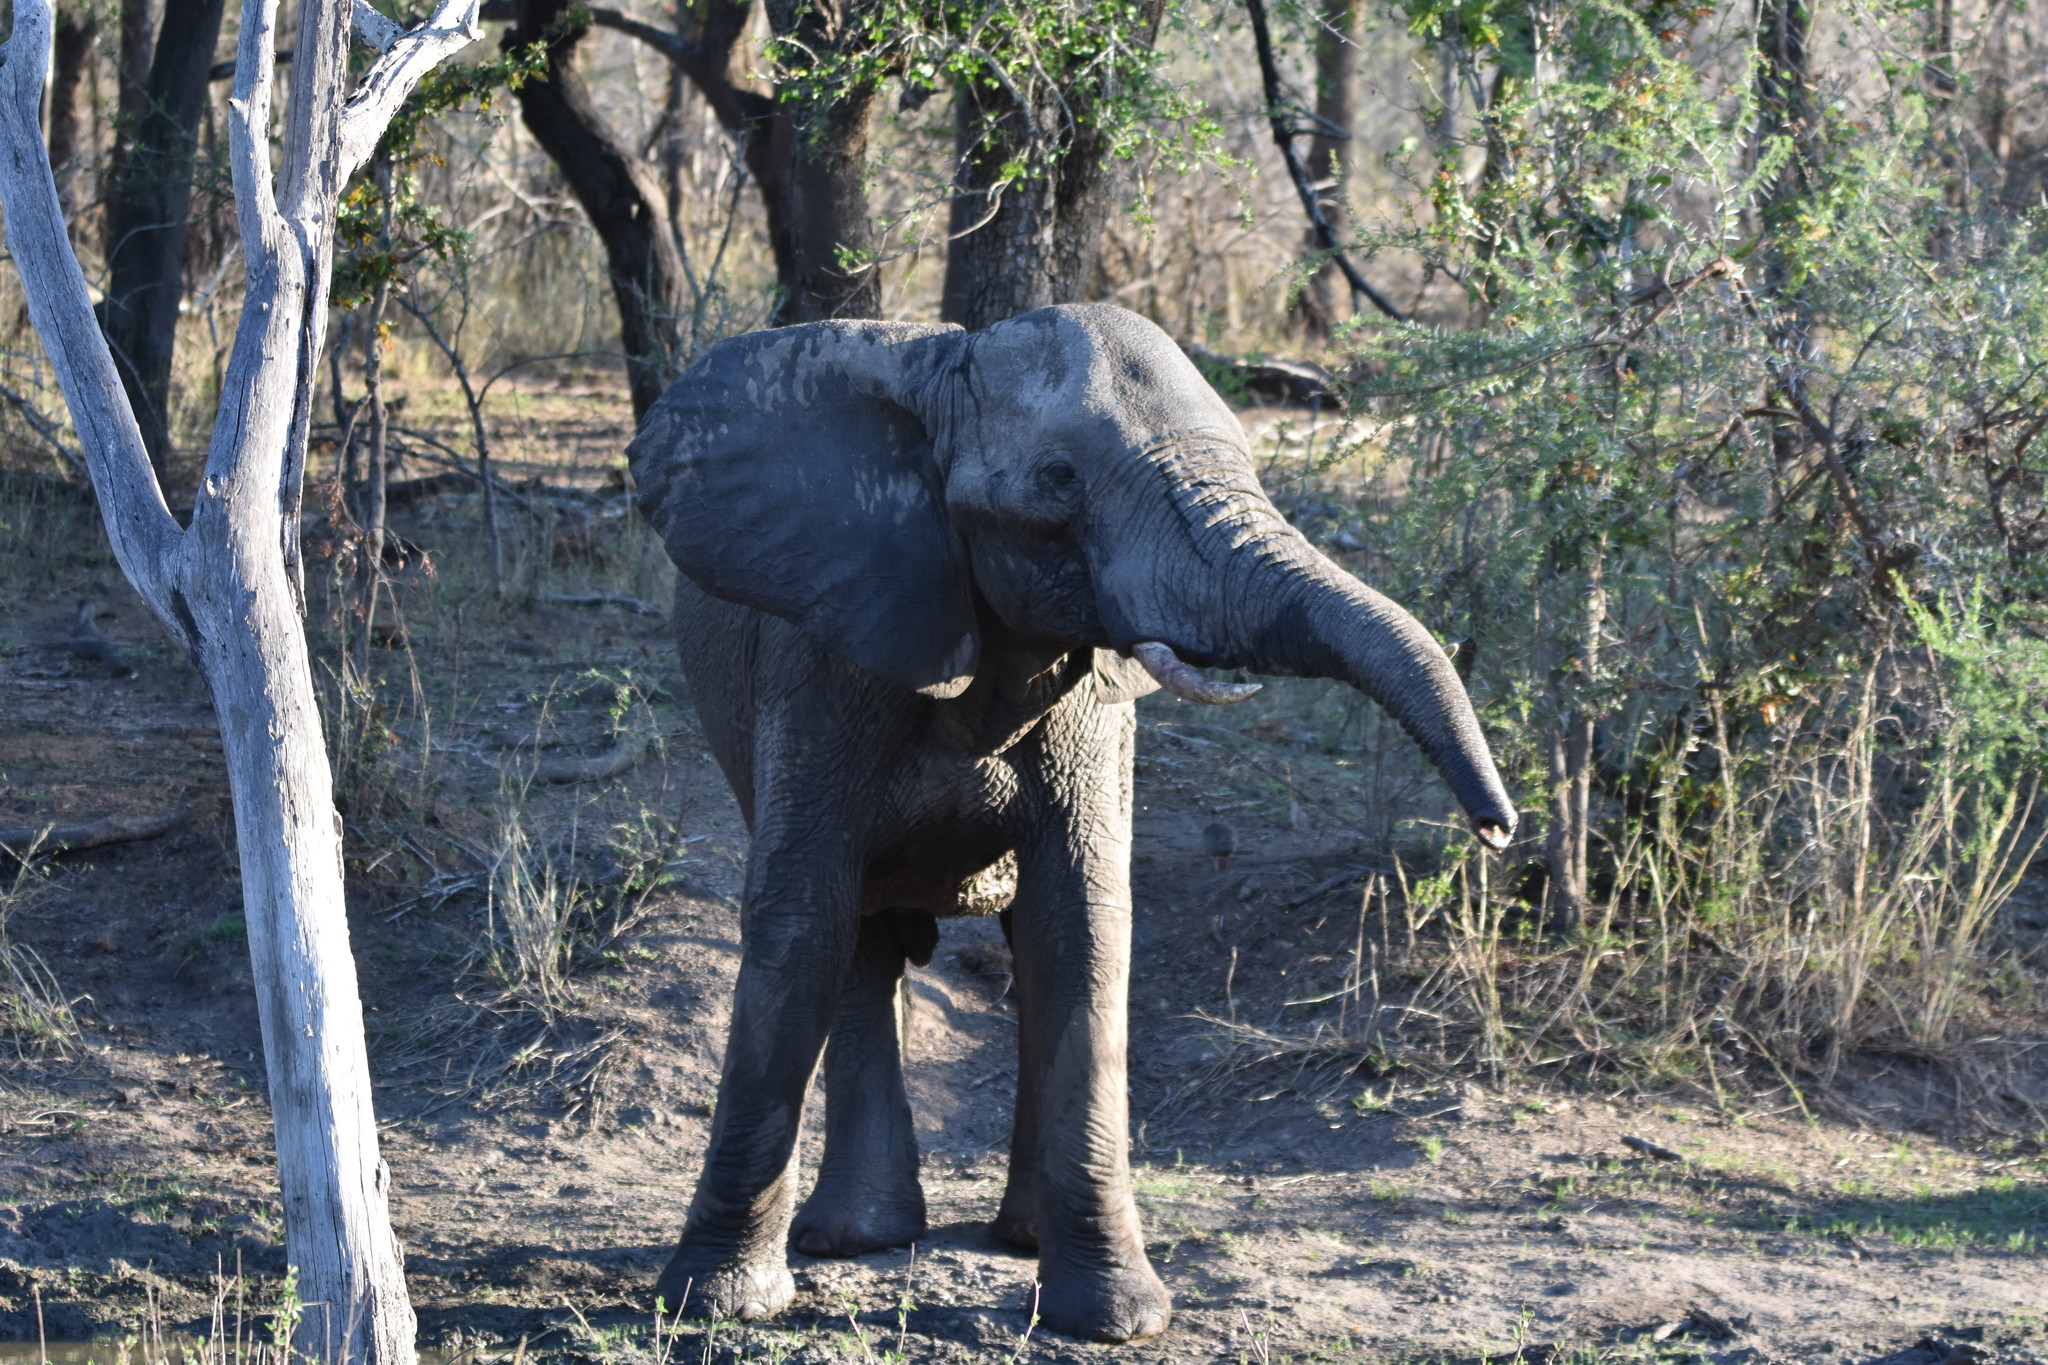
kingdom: Animalia
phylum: Chordata
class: Mammalia
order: Proboscidea
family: Elephantidae
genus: Loxodonta
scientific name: Loxodonta africana
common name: African elephant
